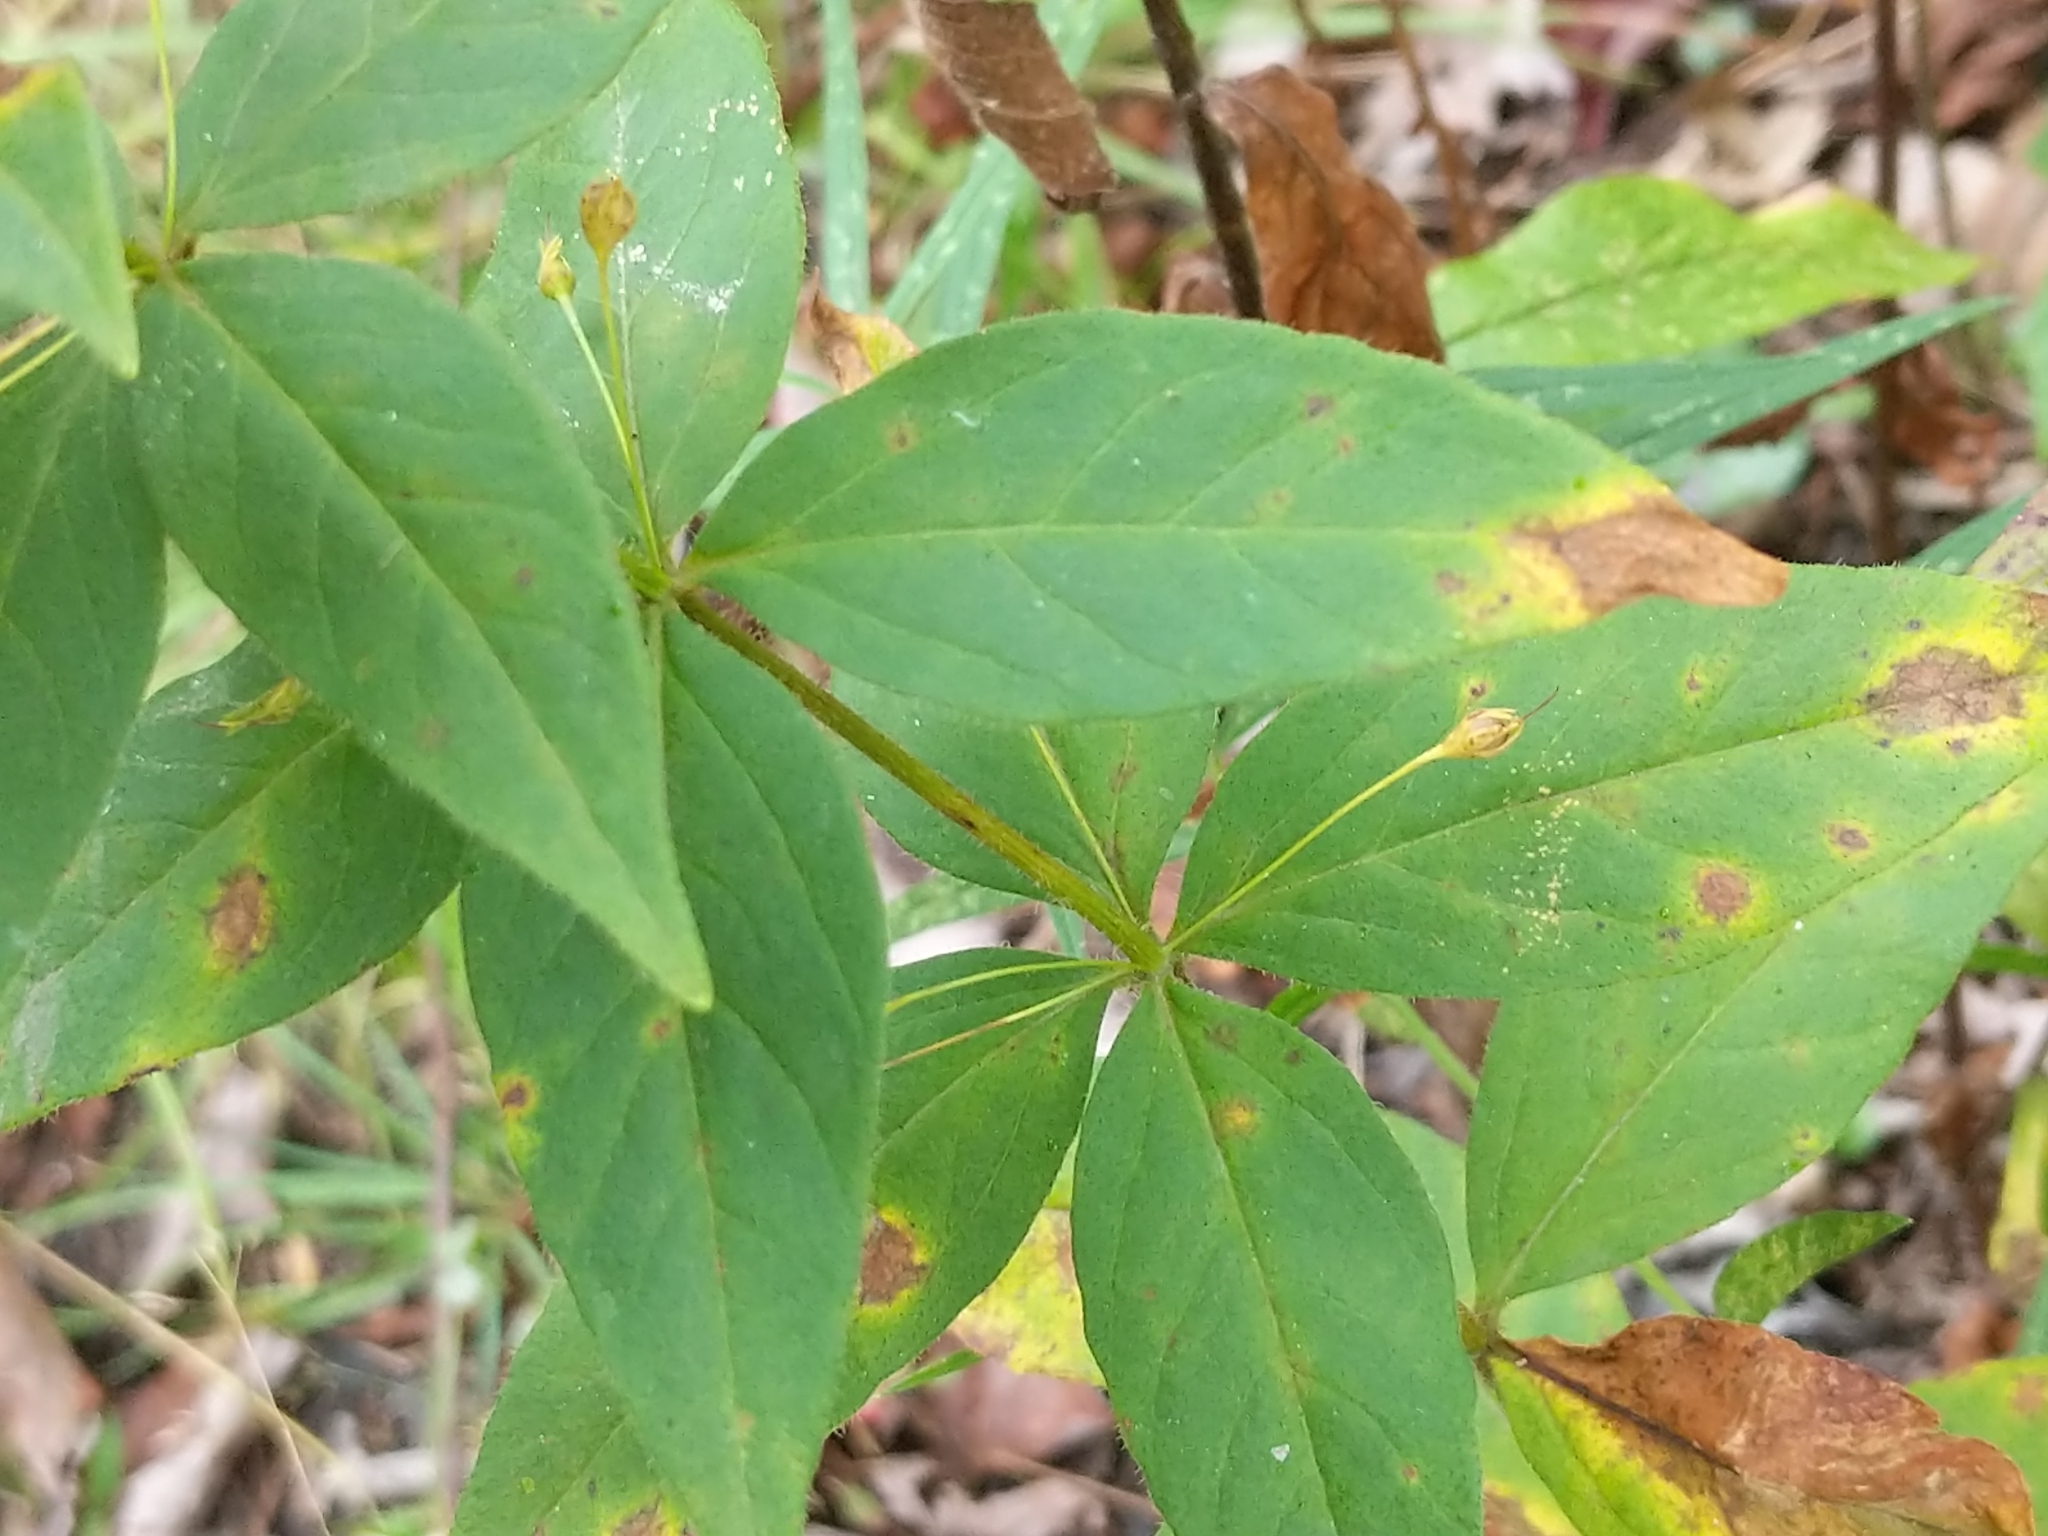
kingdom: Plantae
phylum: Tracheophyta
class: Magnoliopsida
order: Ericales
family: Primulaceae
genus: Lysimachia
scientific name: Lysimachia quadrifolia
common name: Whorled loosestrife
